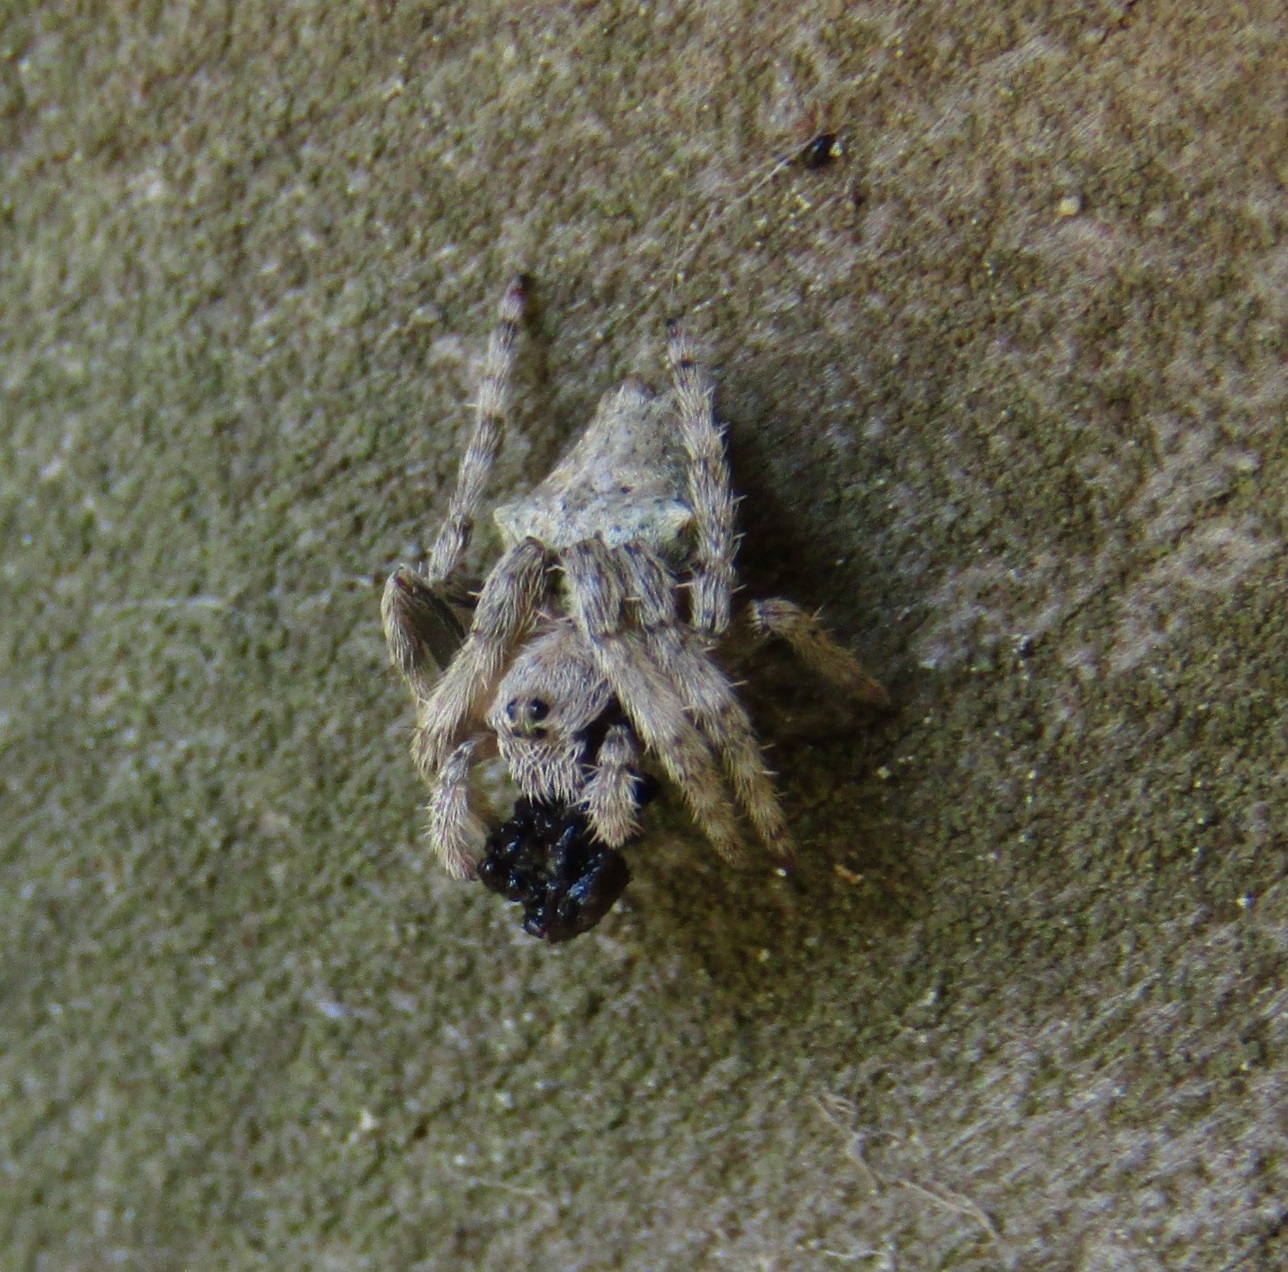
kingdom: Animalia
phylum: Arthropoda
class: Arachnida
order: Araneae
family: Araneidae
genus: Eriophora
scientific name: Eriophora pustulosa
